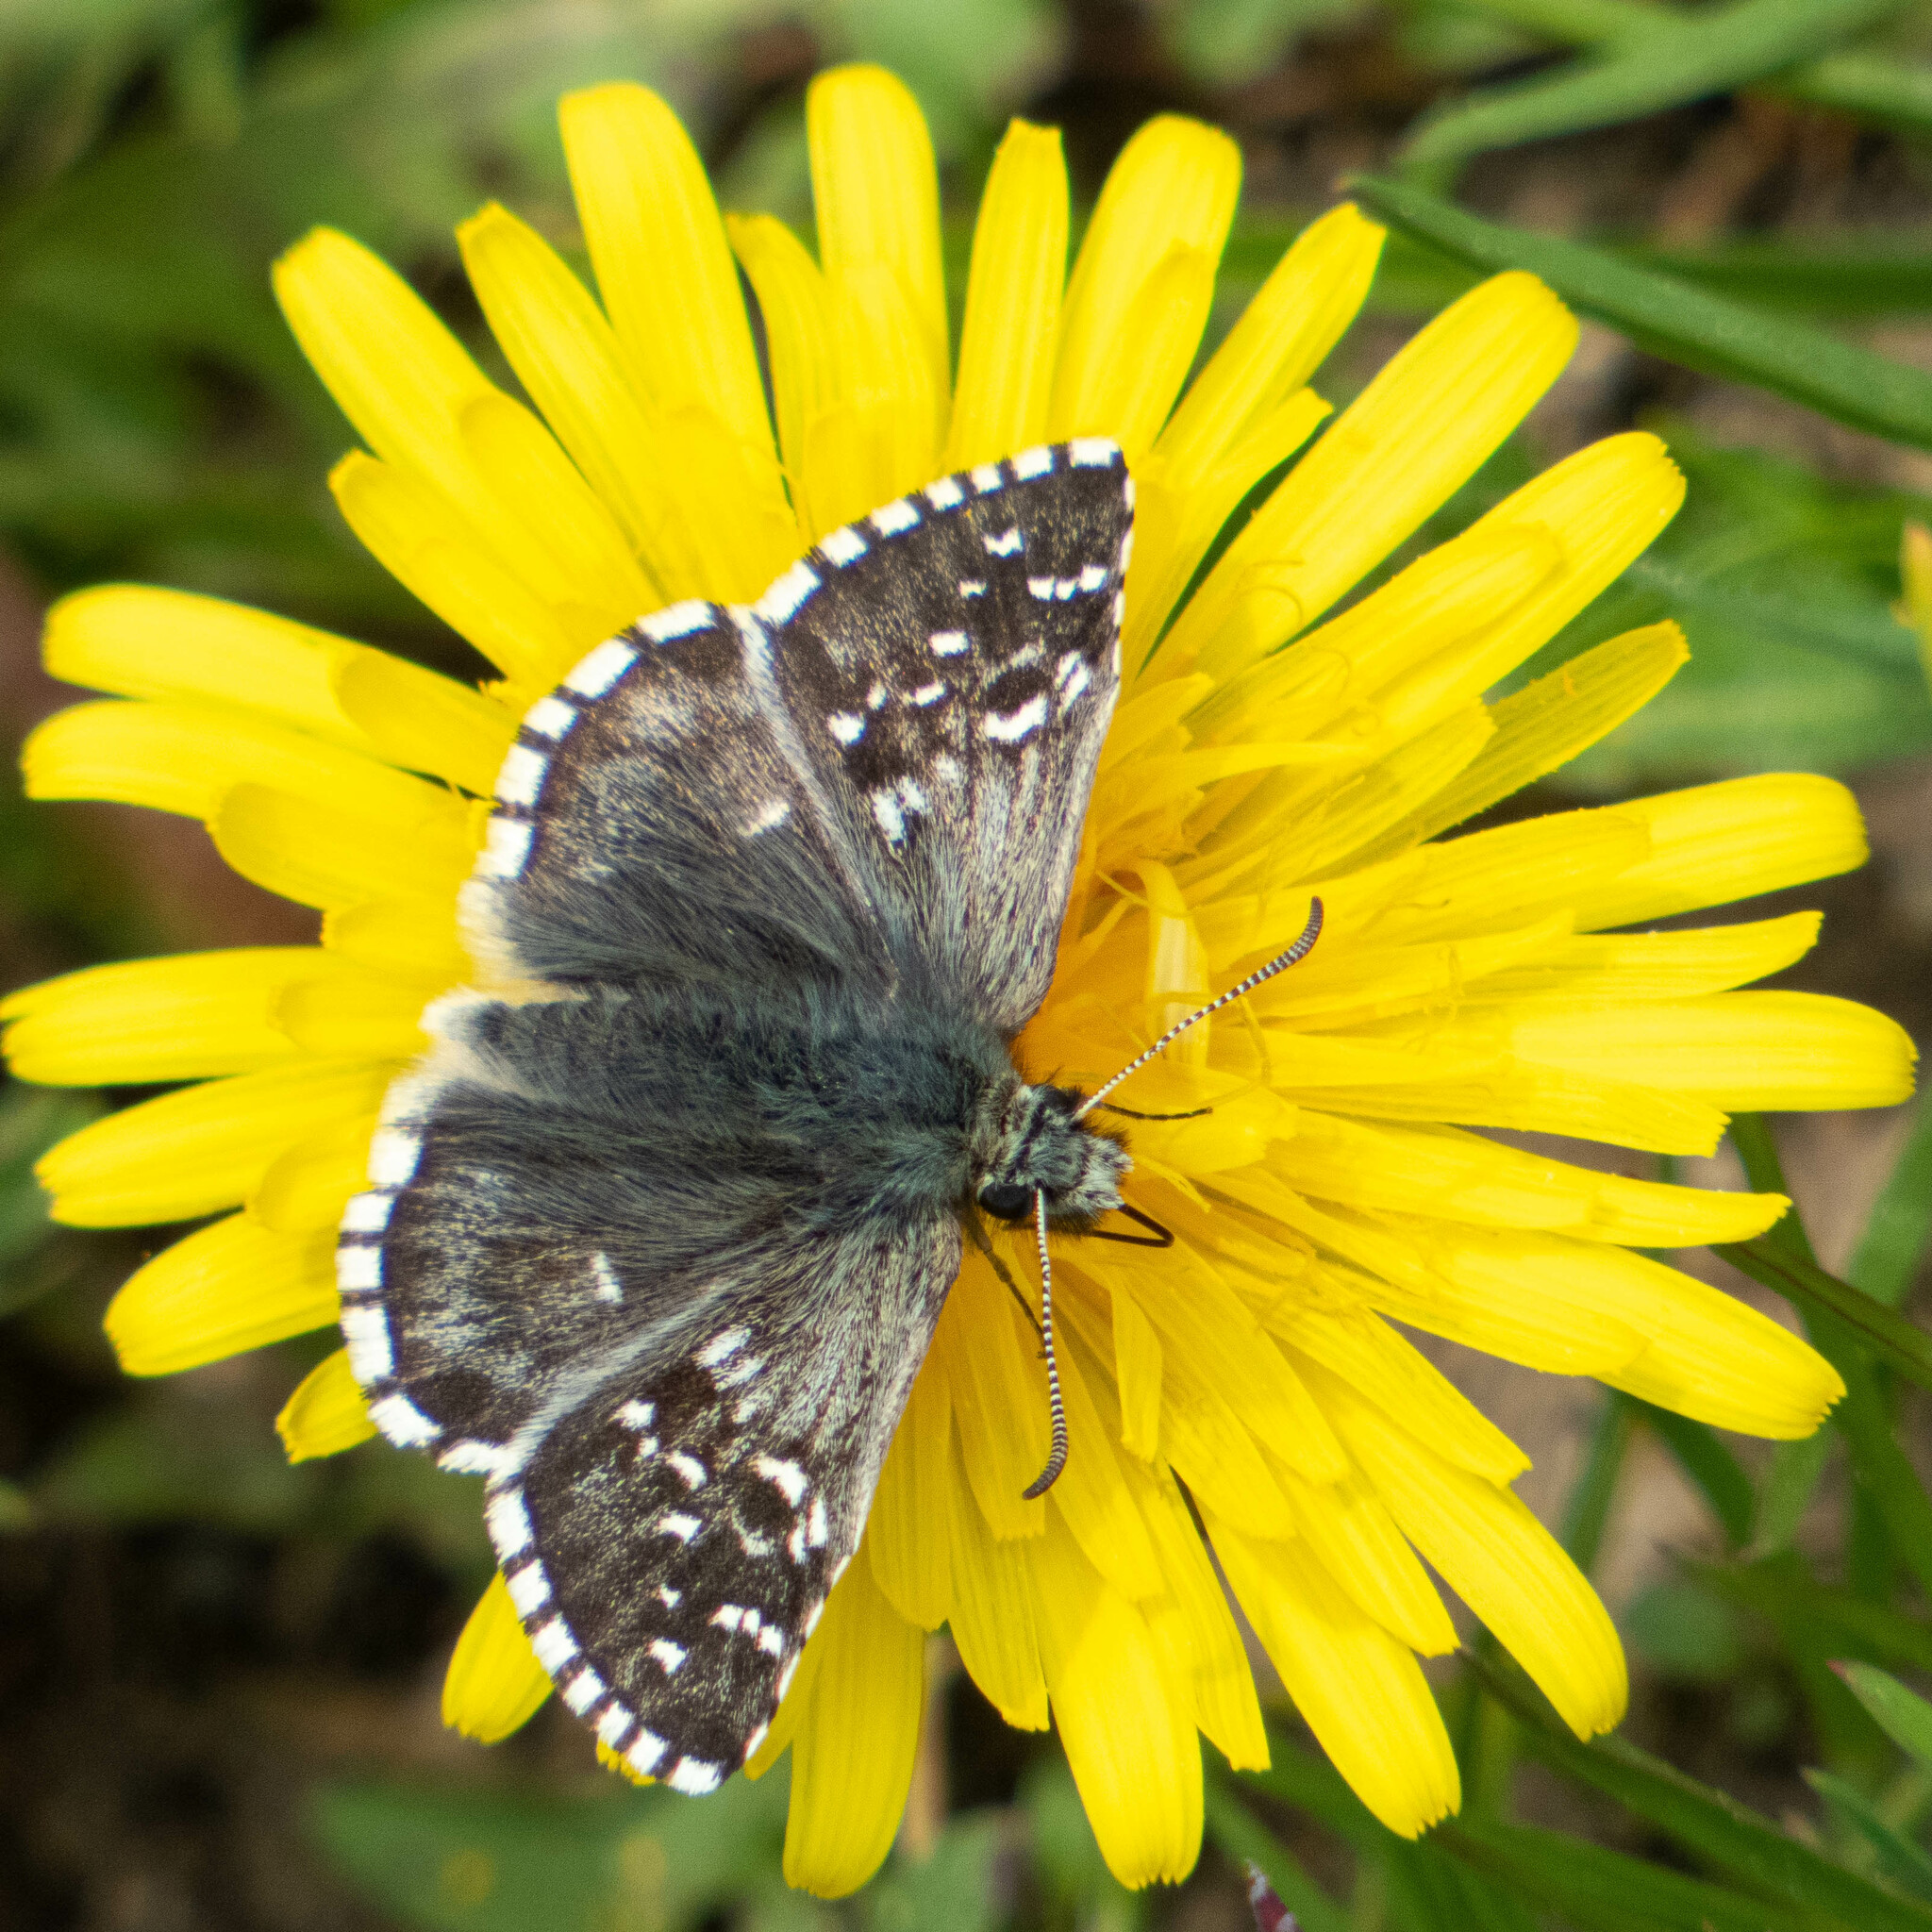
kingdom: Animalia
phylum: Arthropoda
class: Insecta
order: Lepidoptera
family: Hesperiidae
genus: Pyrgus
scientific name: Pyrgus andromedae
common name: Alpine grizzled skipper
